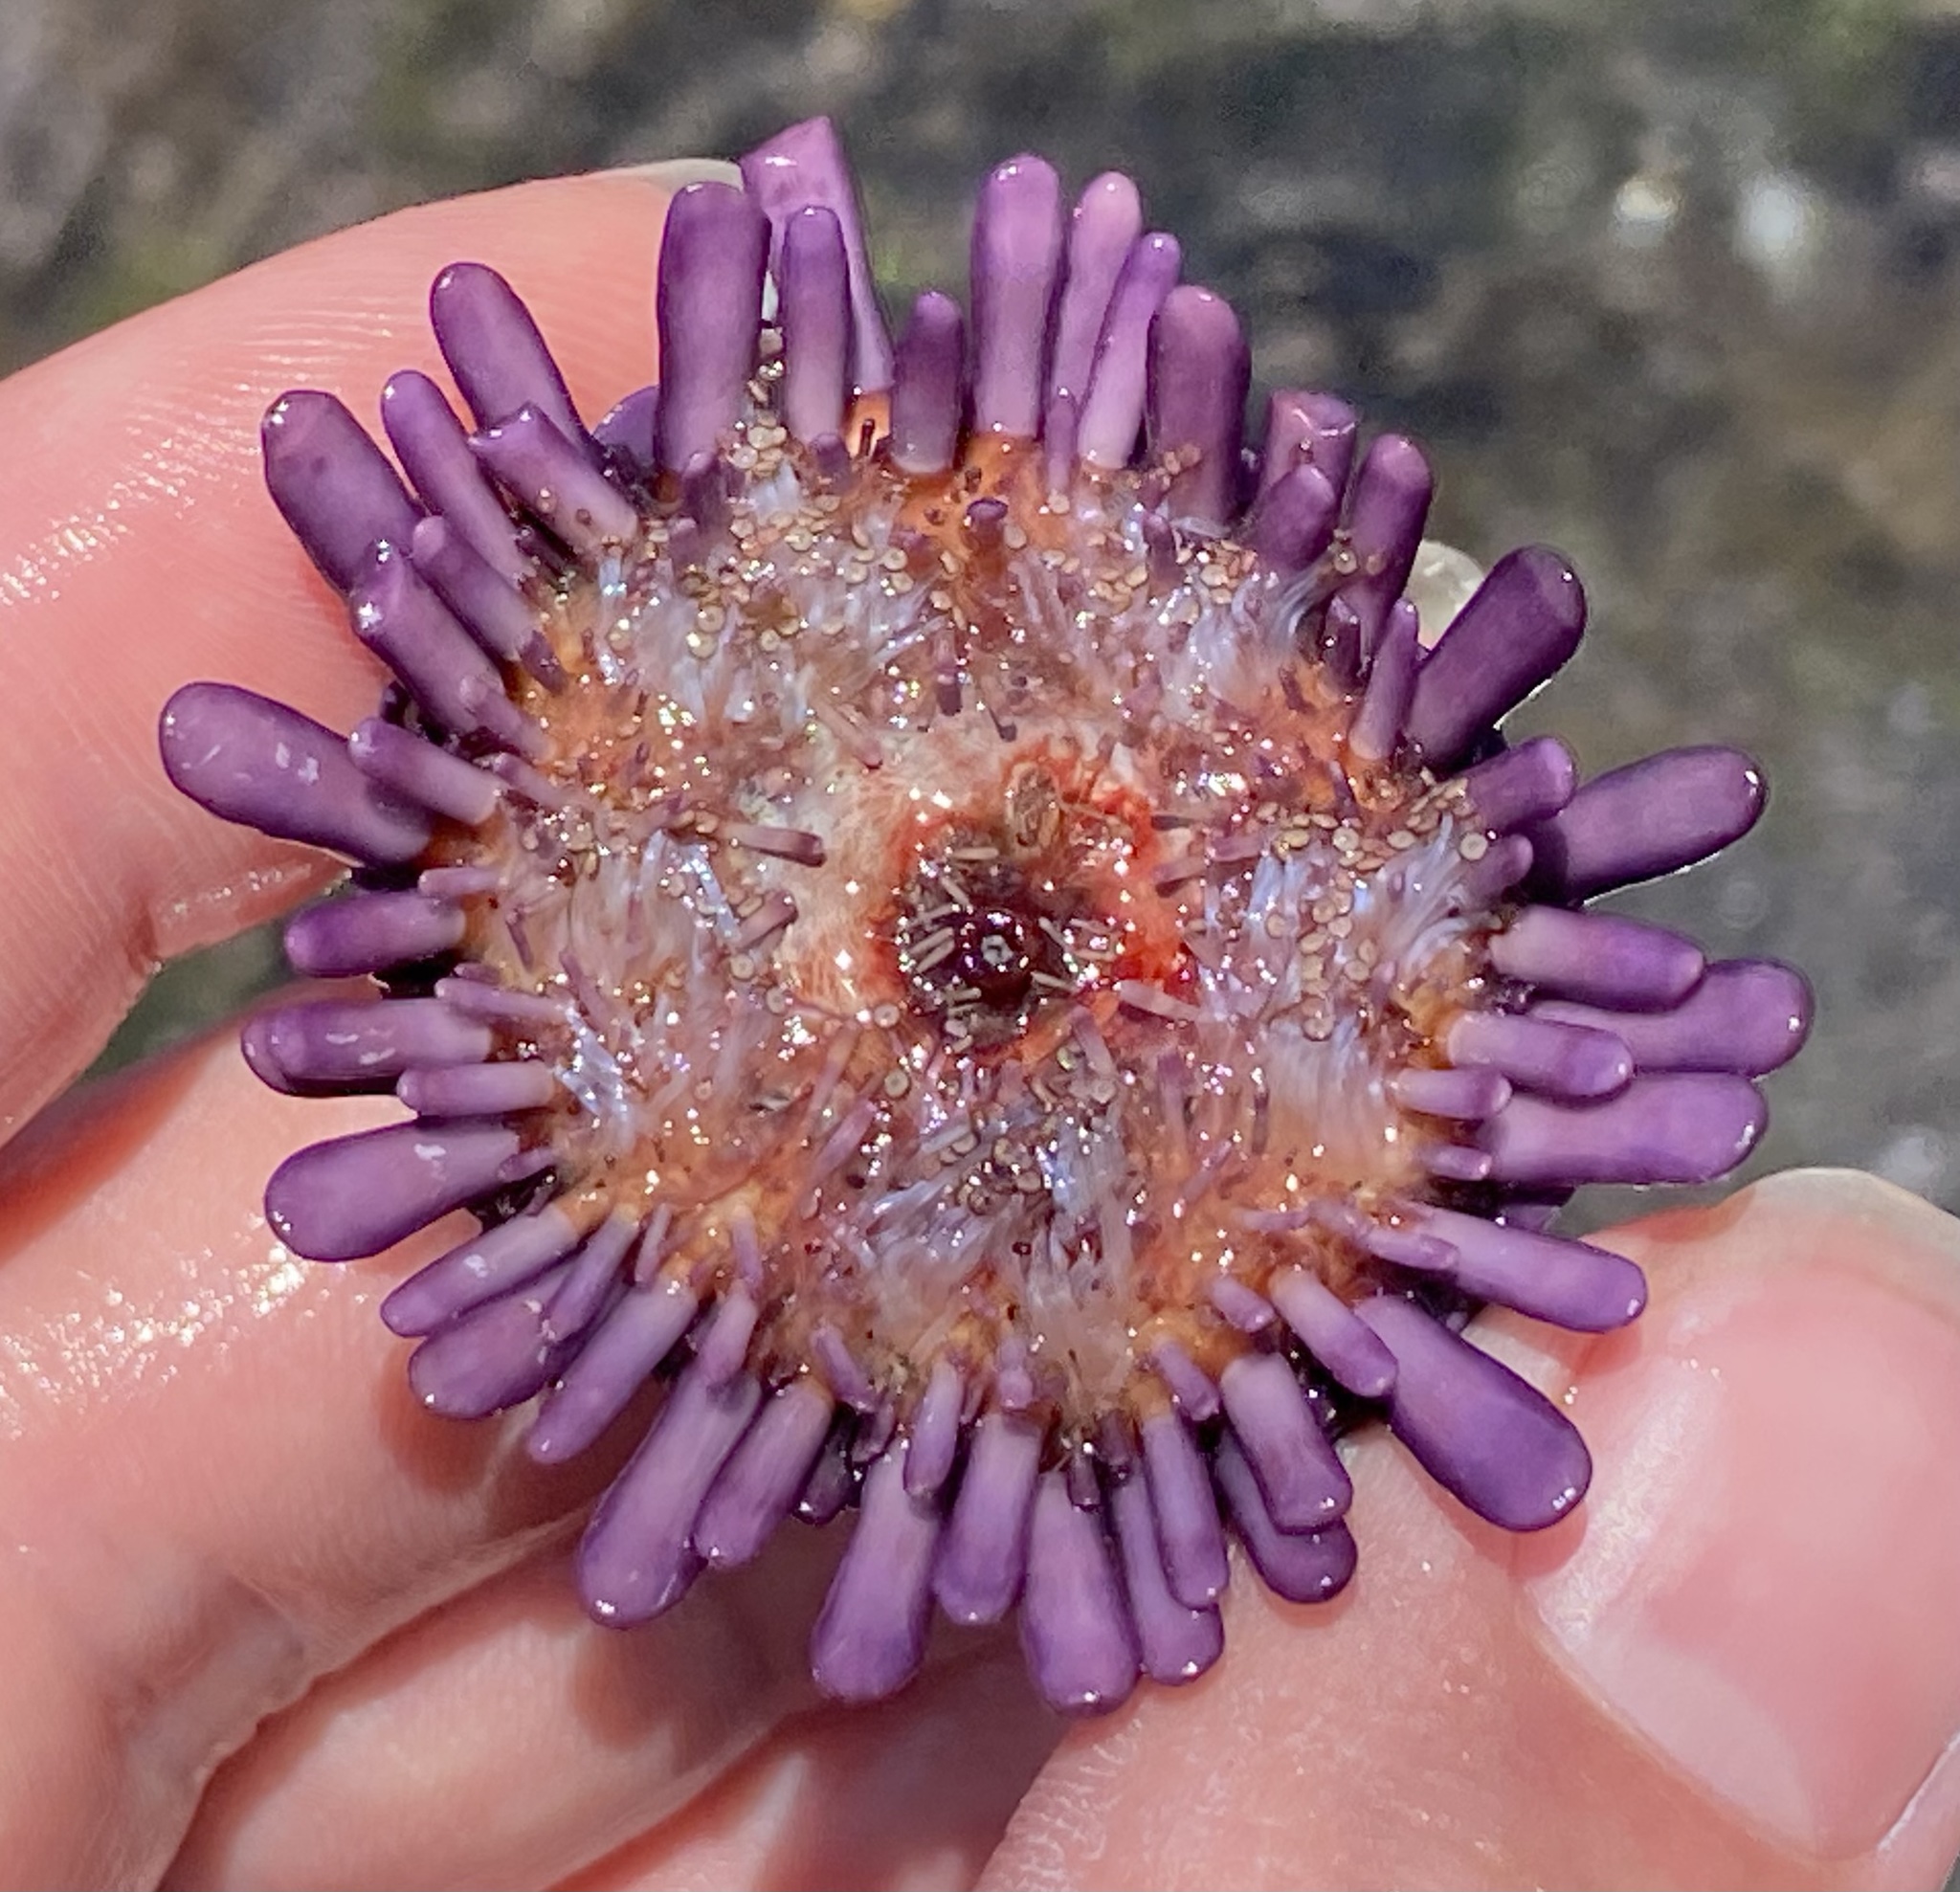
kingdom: Animalia
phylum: Echinodermata
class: Echinoidea
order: Camarodonta
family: Echinometridae
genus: Colobocentrotus
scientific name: Colobocentrotus atratus
